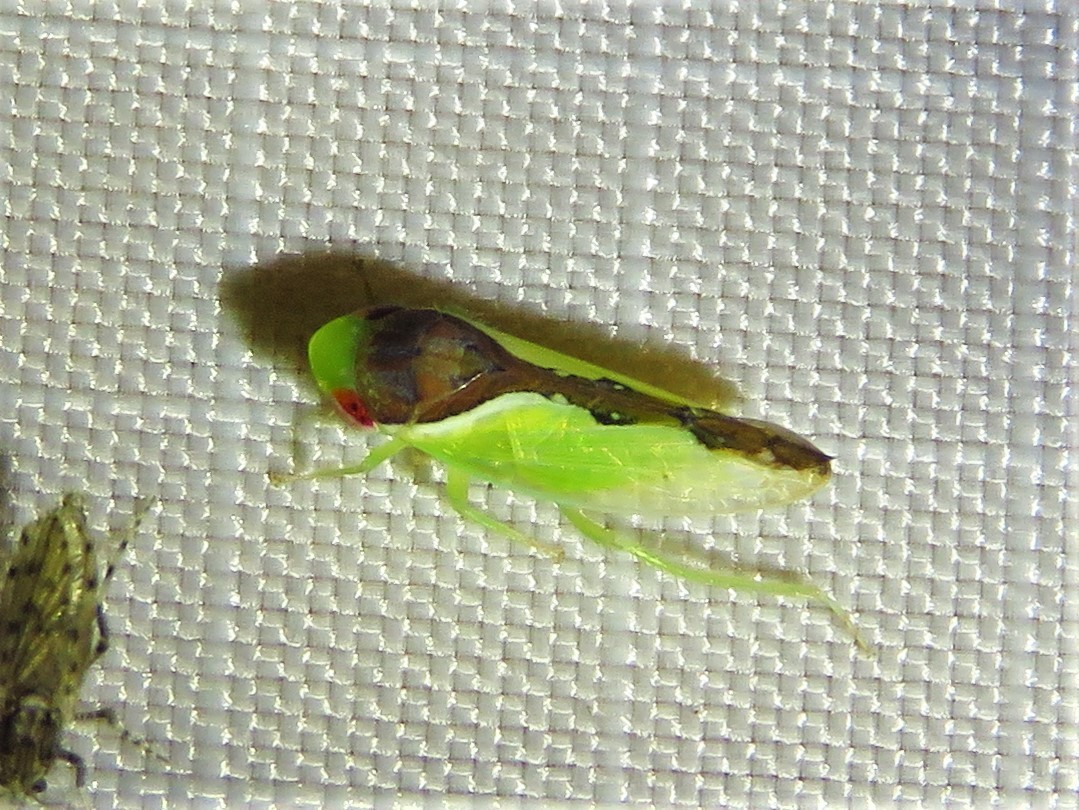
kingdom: Animalia
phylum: Arthropoda
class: Insecta
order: Hemiptera
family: Cicadellidae
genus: Omansobara ing
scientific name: Omansobara ing Omansobara palliolata
